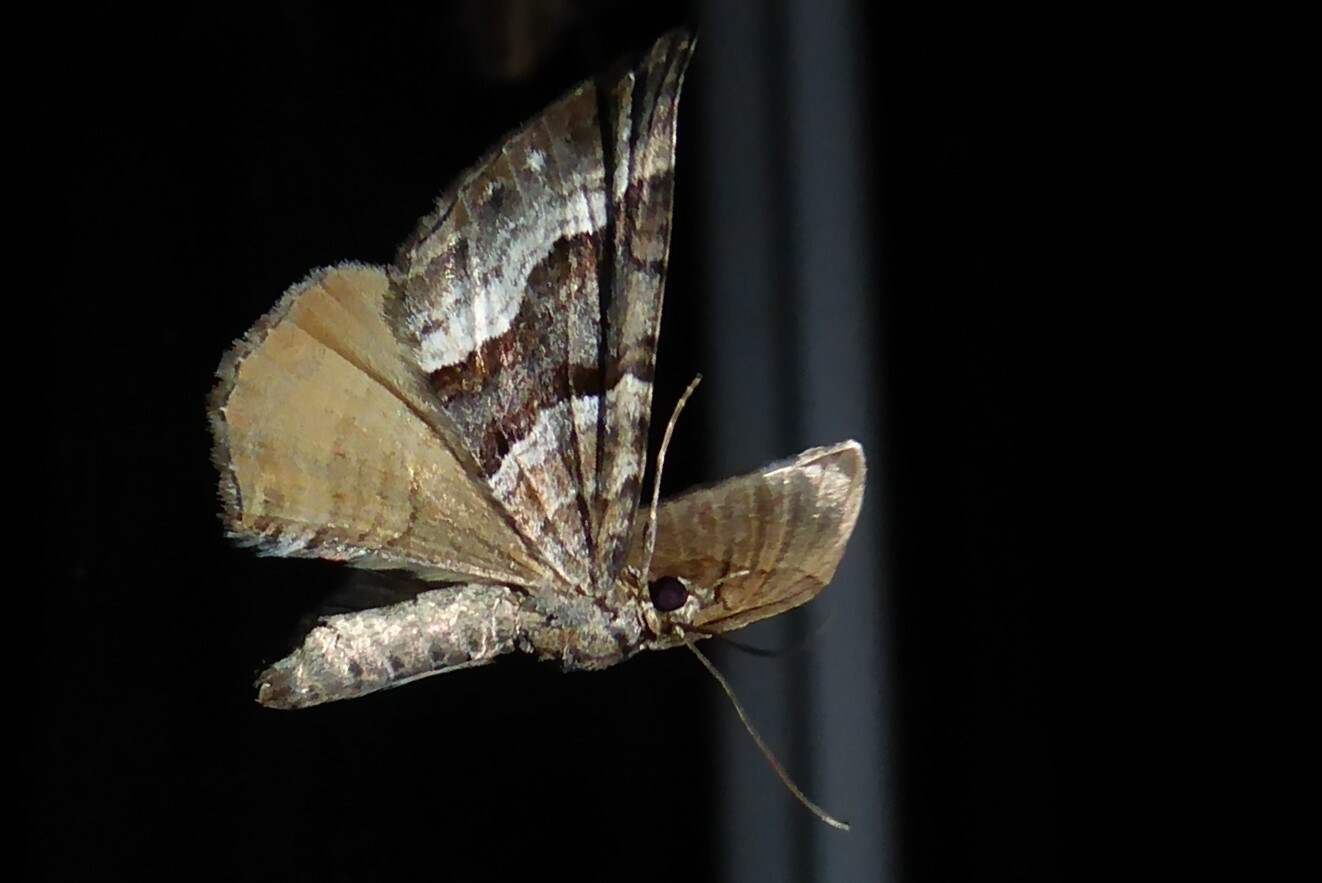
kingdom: Animalia
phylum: Arthropoda
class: Insecta
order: Lepidoptera
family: Geometridae
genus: Hydriomena
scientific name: Hydriomena deltoidata
